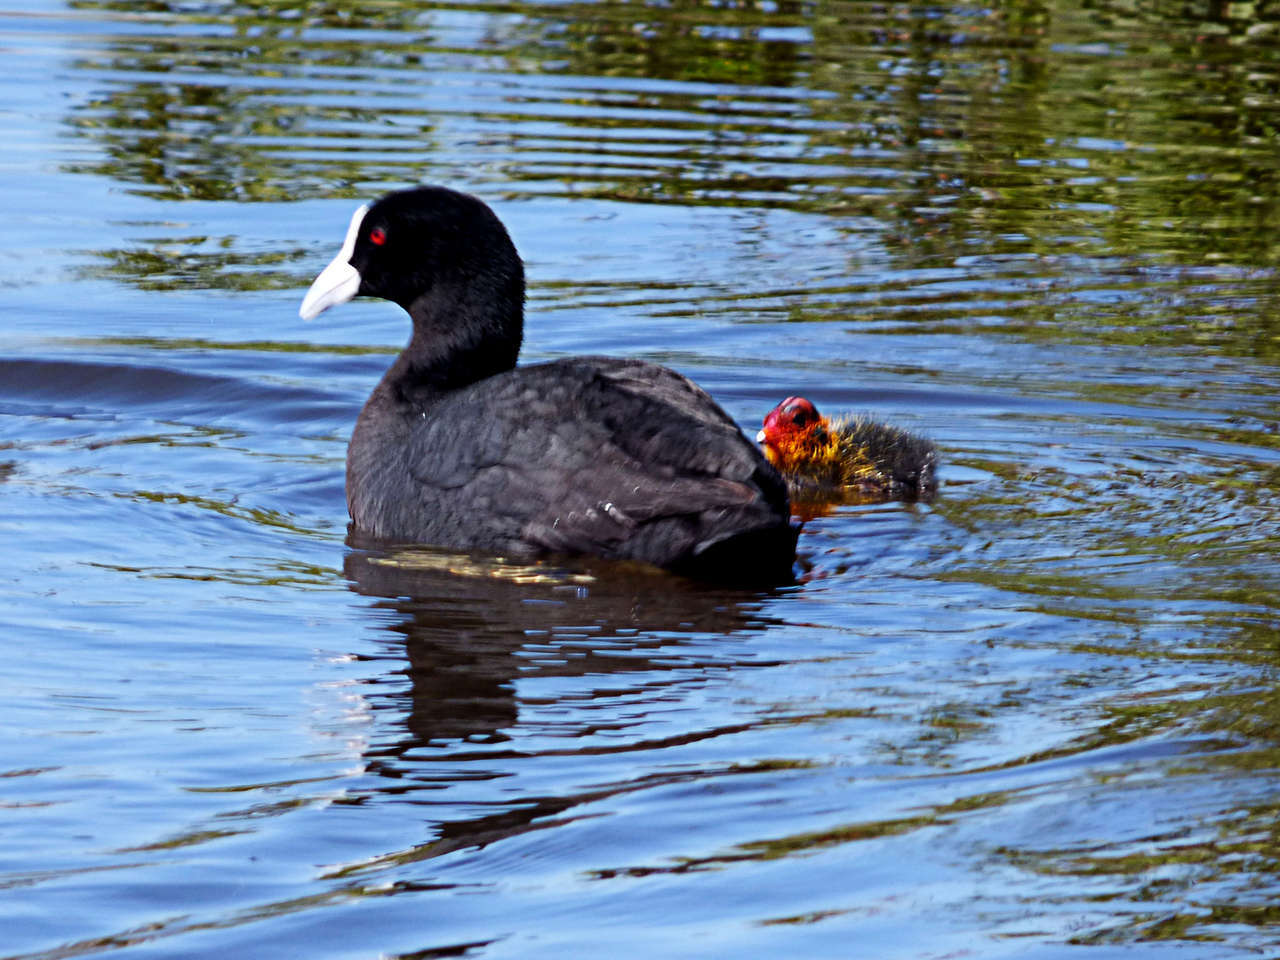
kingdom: Animalia
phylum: Chordata
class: Aves
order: Gruiformes
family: Rallidae
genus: Fulica
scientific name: Fulica atra
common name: Eurasian coot
